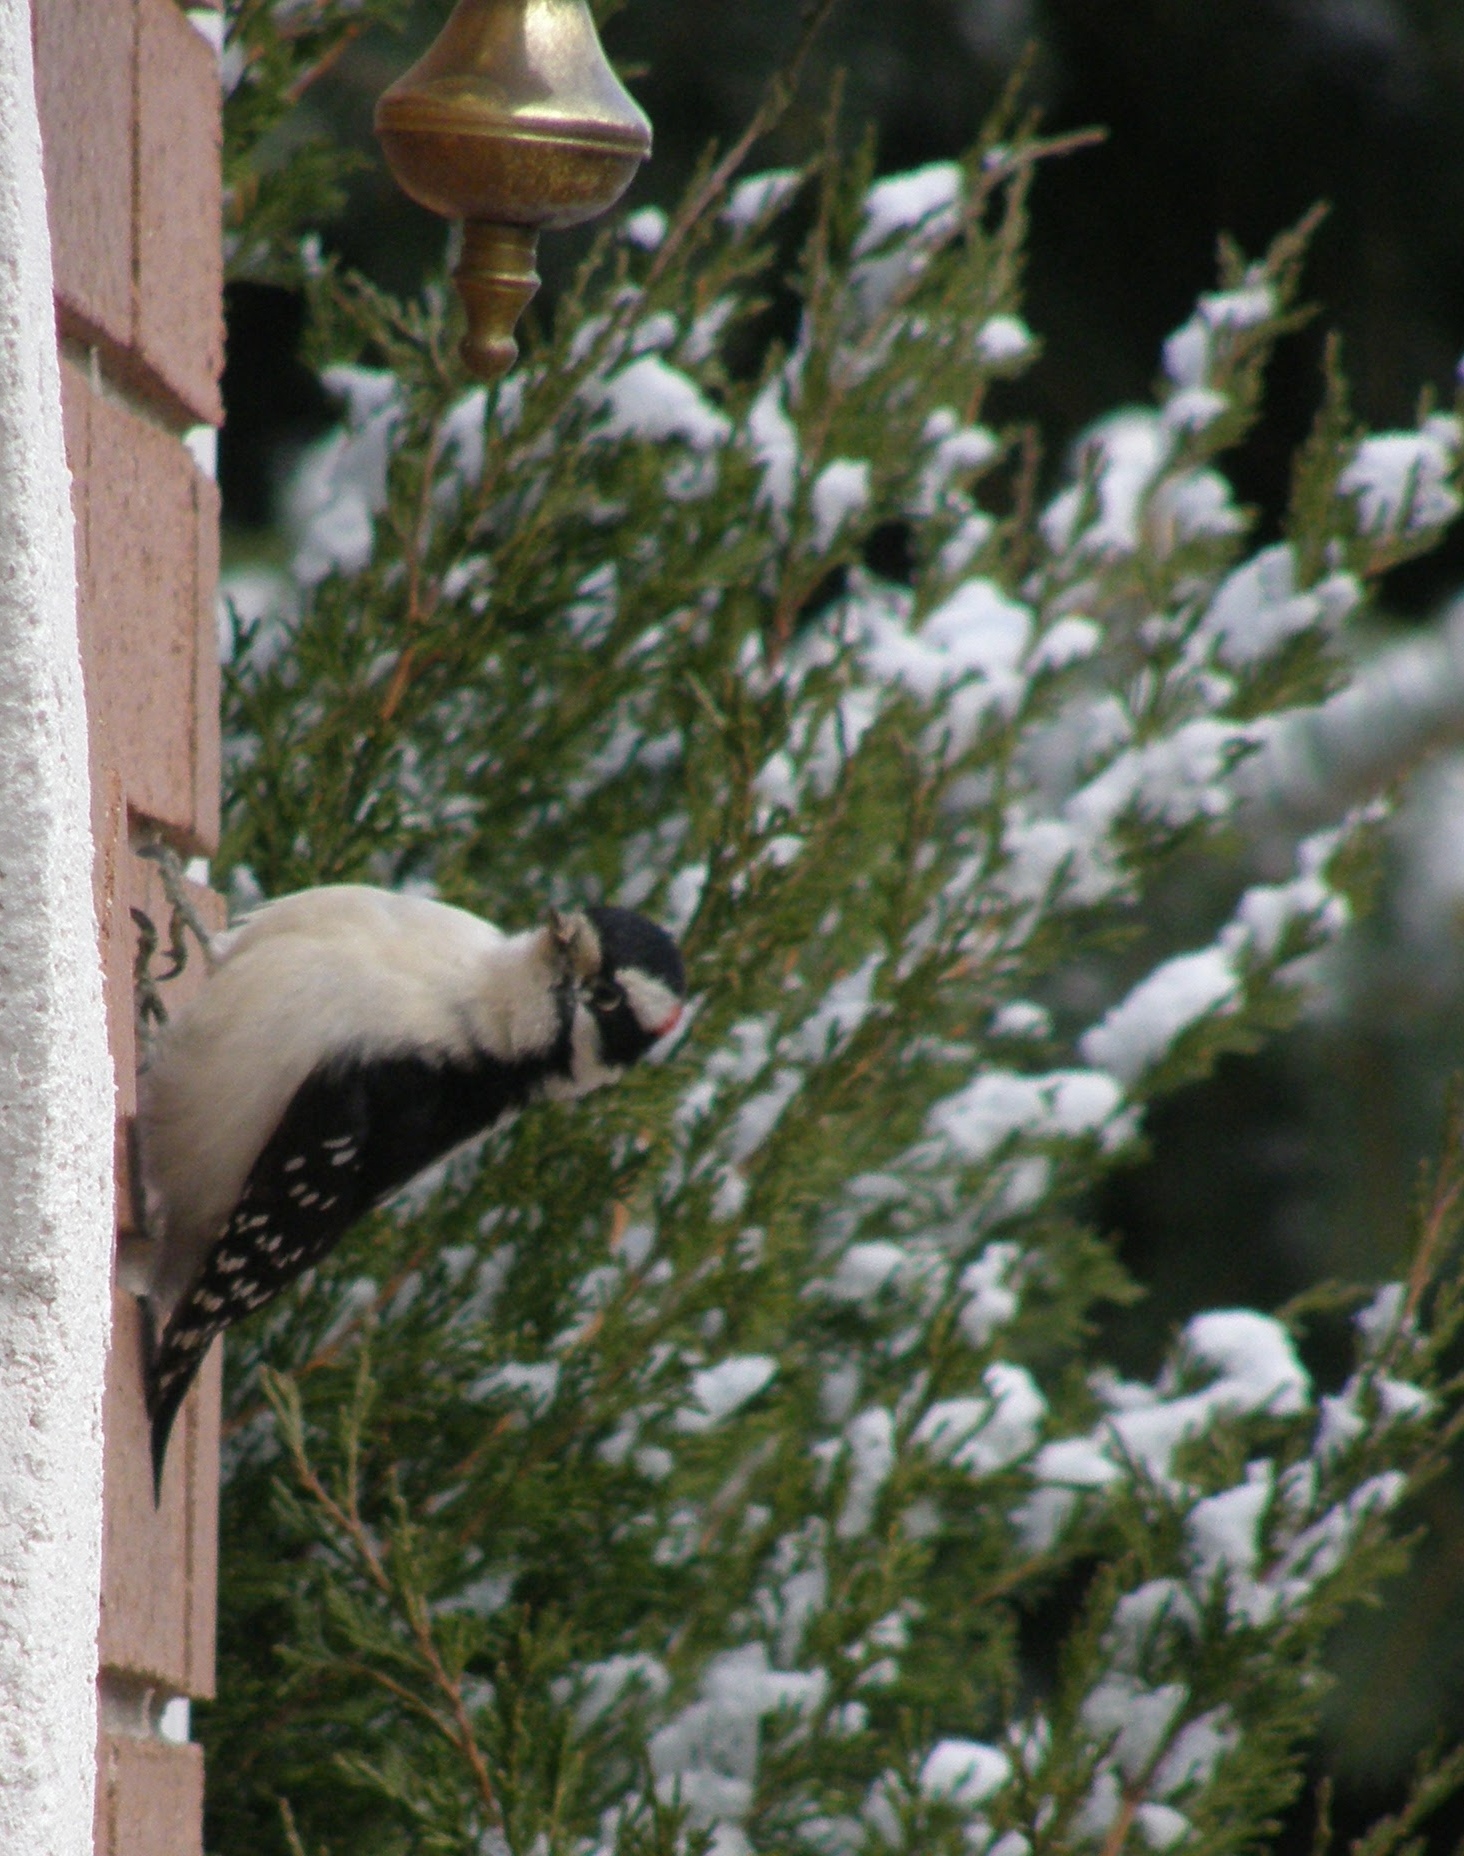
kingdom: Animalia
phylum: Chordata
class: Aves
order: Piciformes
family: Picidae
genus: Dryobates
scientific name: Dryobates pubescens
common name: Downy woodpecker
